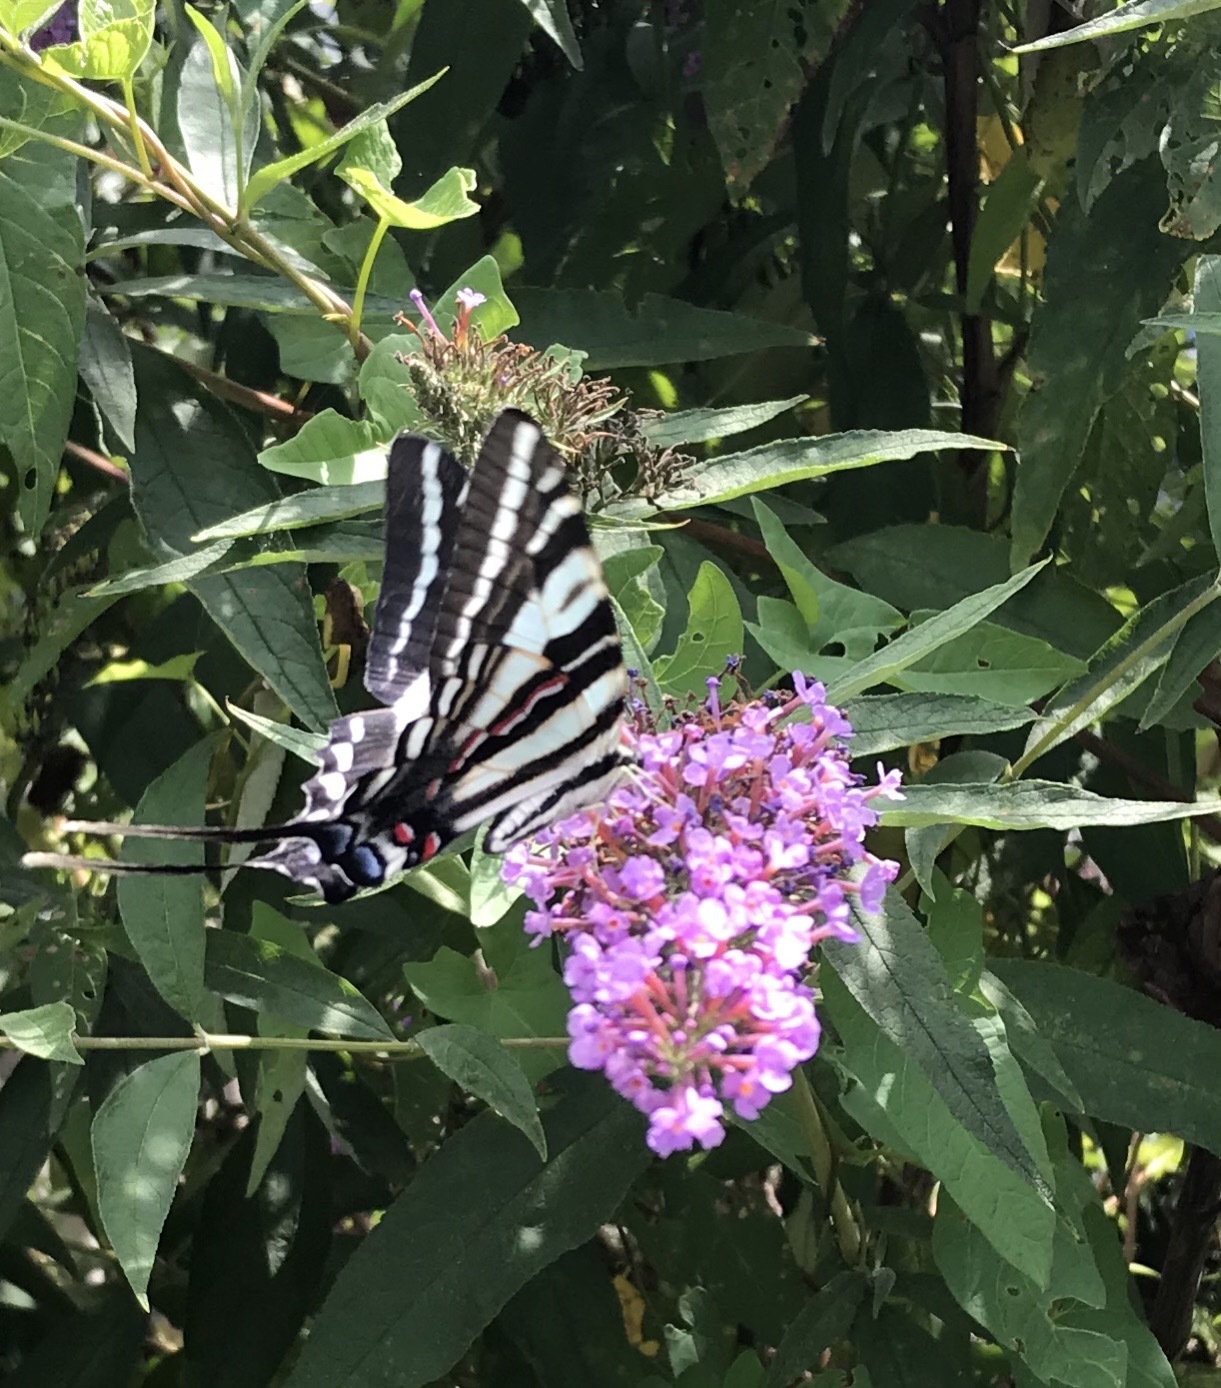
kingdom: Animalia
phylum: Arthropoda
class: Insecta
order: Lepidoptera
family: Papilionidae
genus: Protographium
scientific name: Protographium marcellus
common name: Zebra swallowtail
